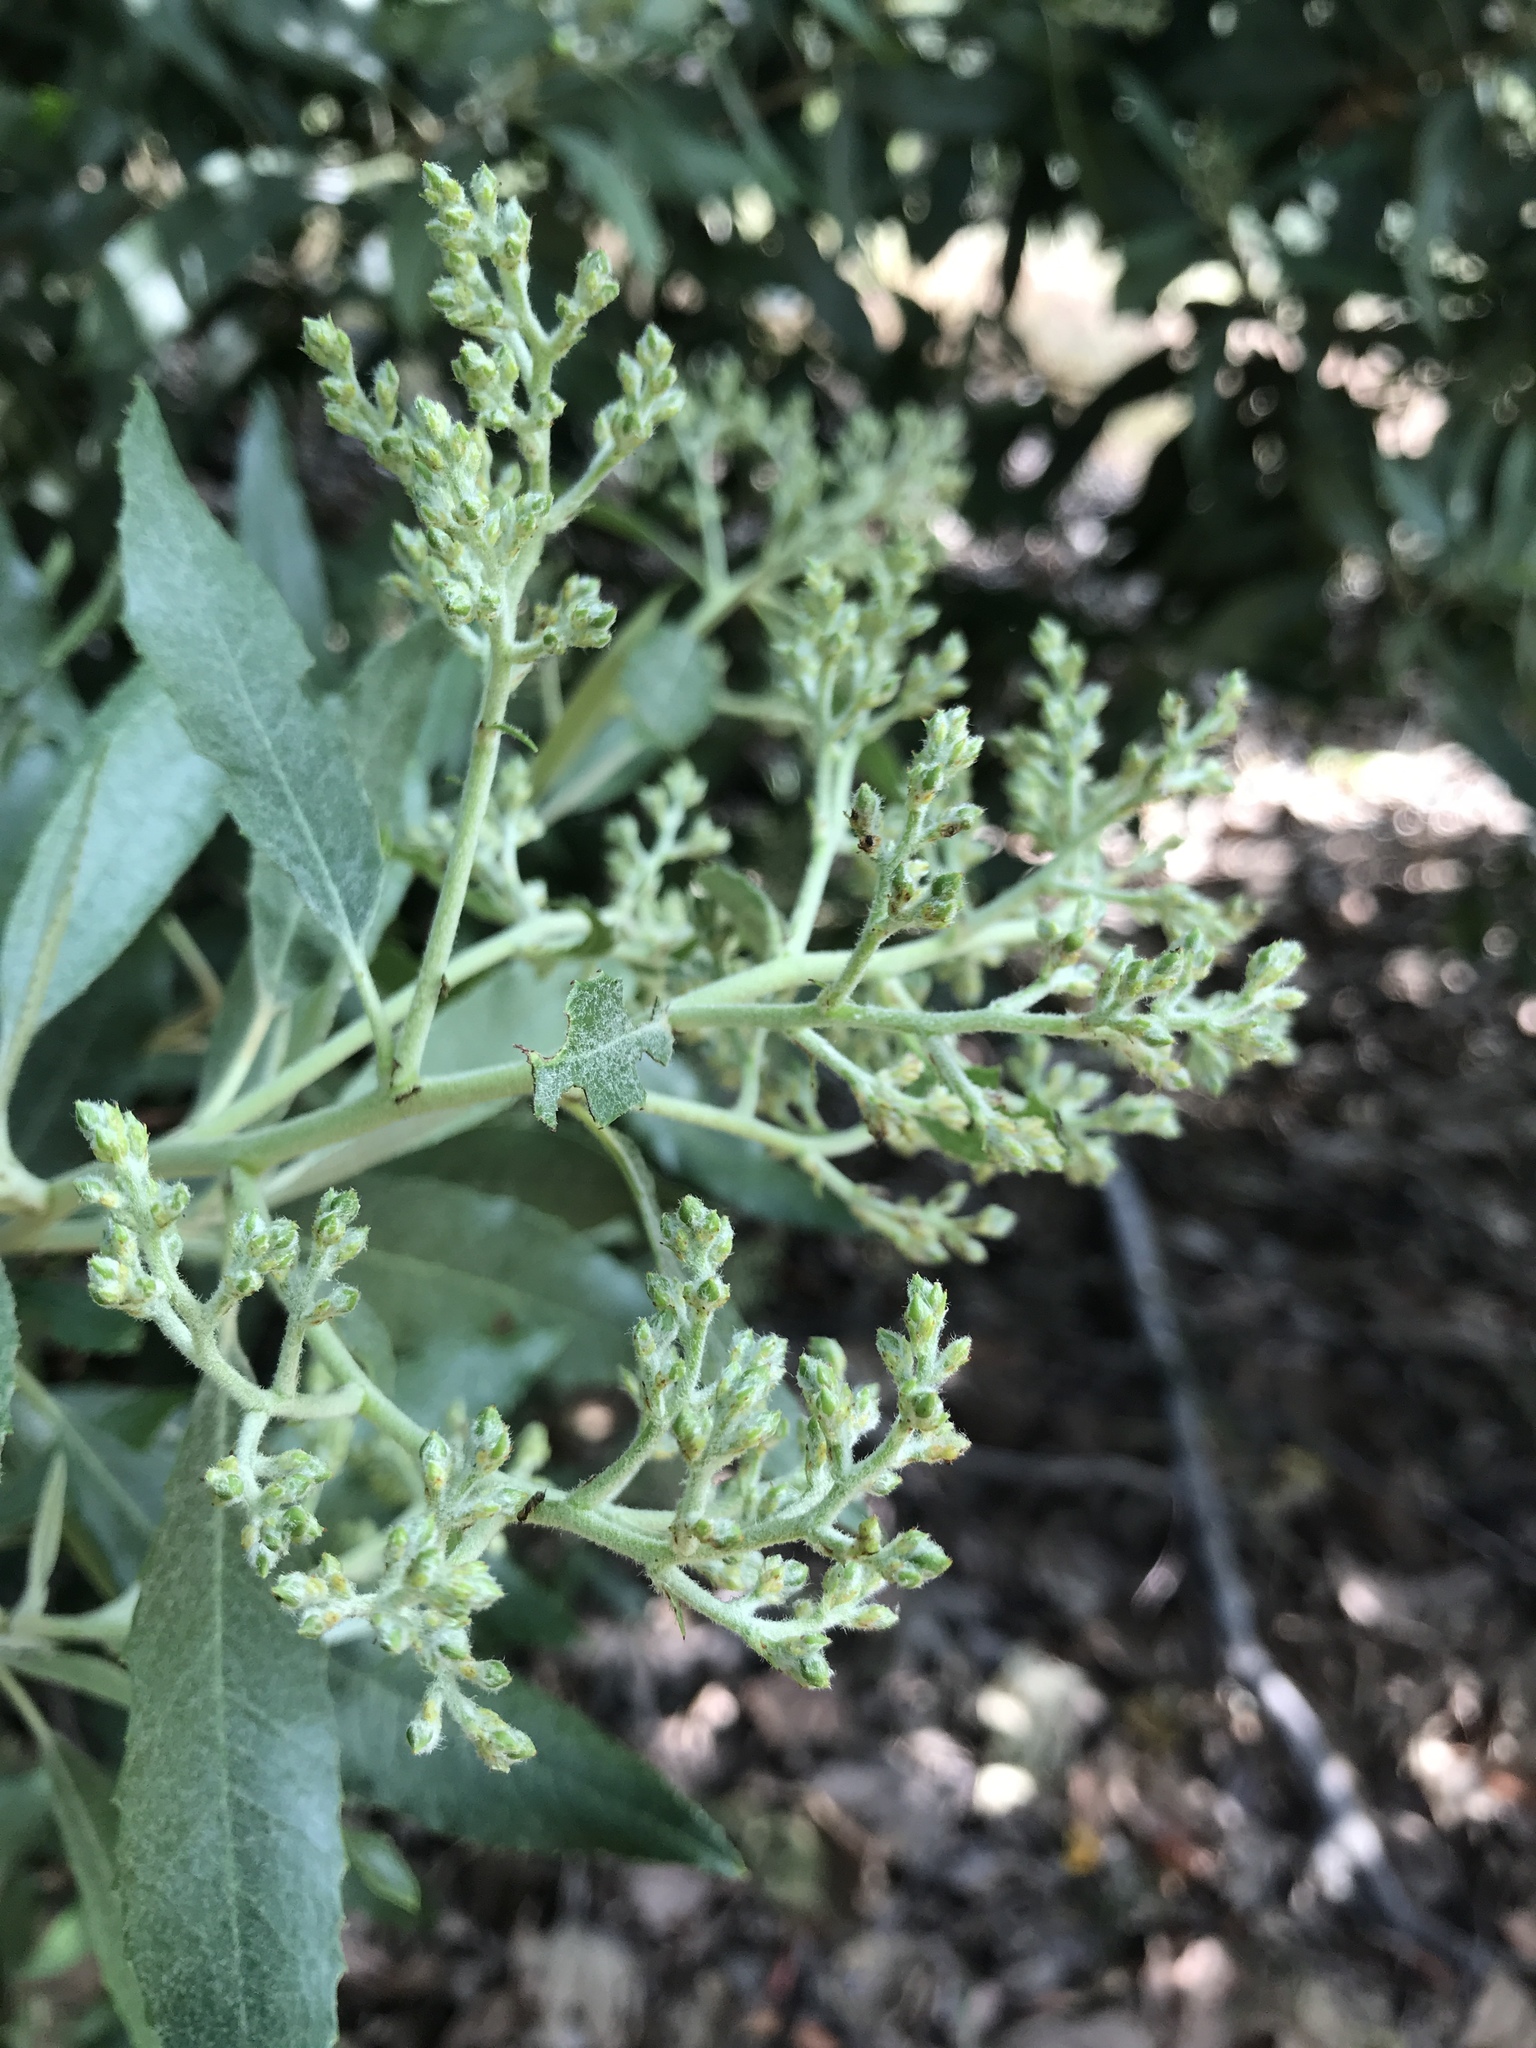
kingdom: Plantae
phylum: Tracheophyta
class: Magnoliopsida
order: Rosales
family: Rosaceae
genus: Heteromeles
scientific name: Heteromeles arbutifolia
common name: California-holly
